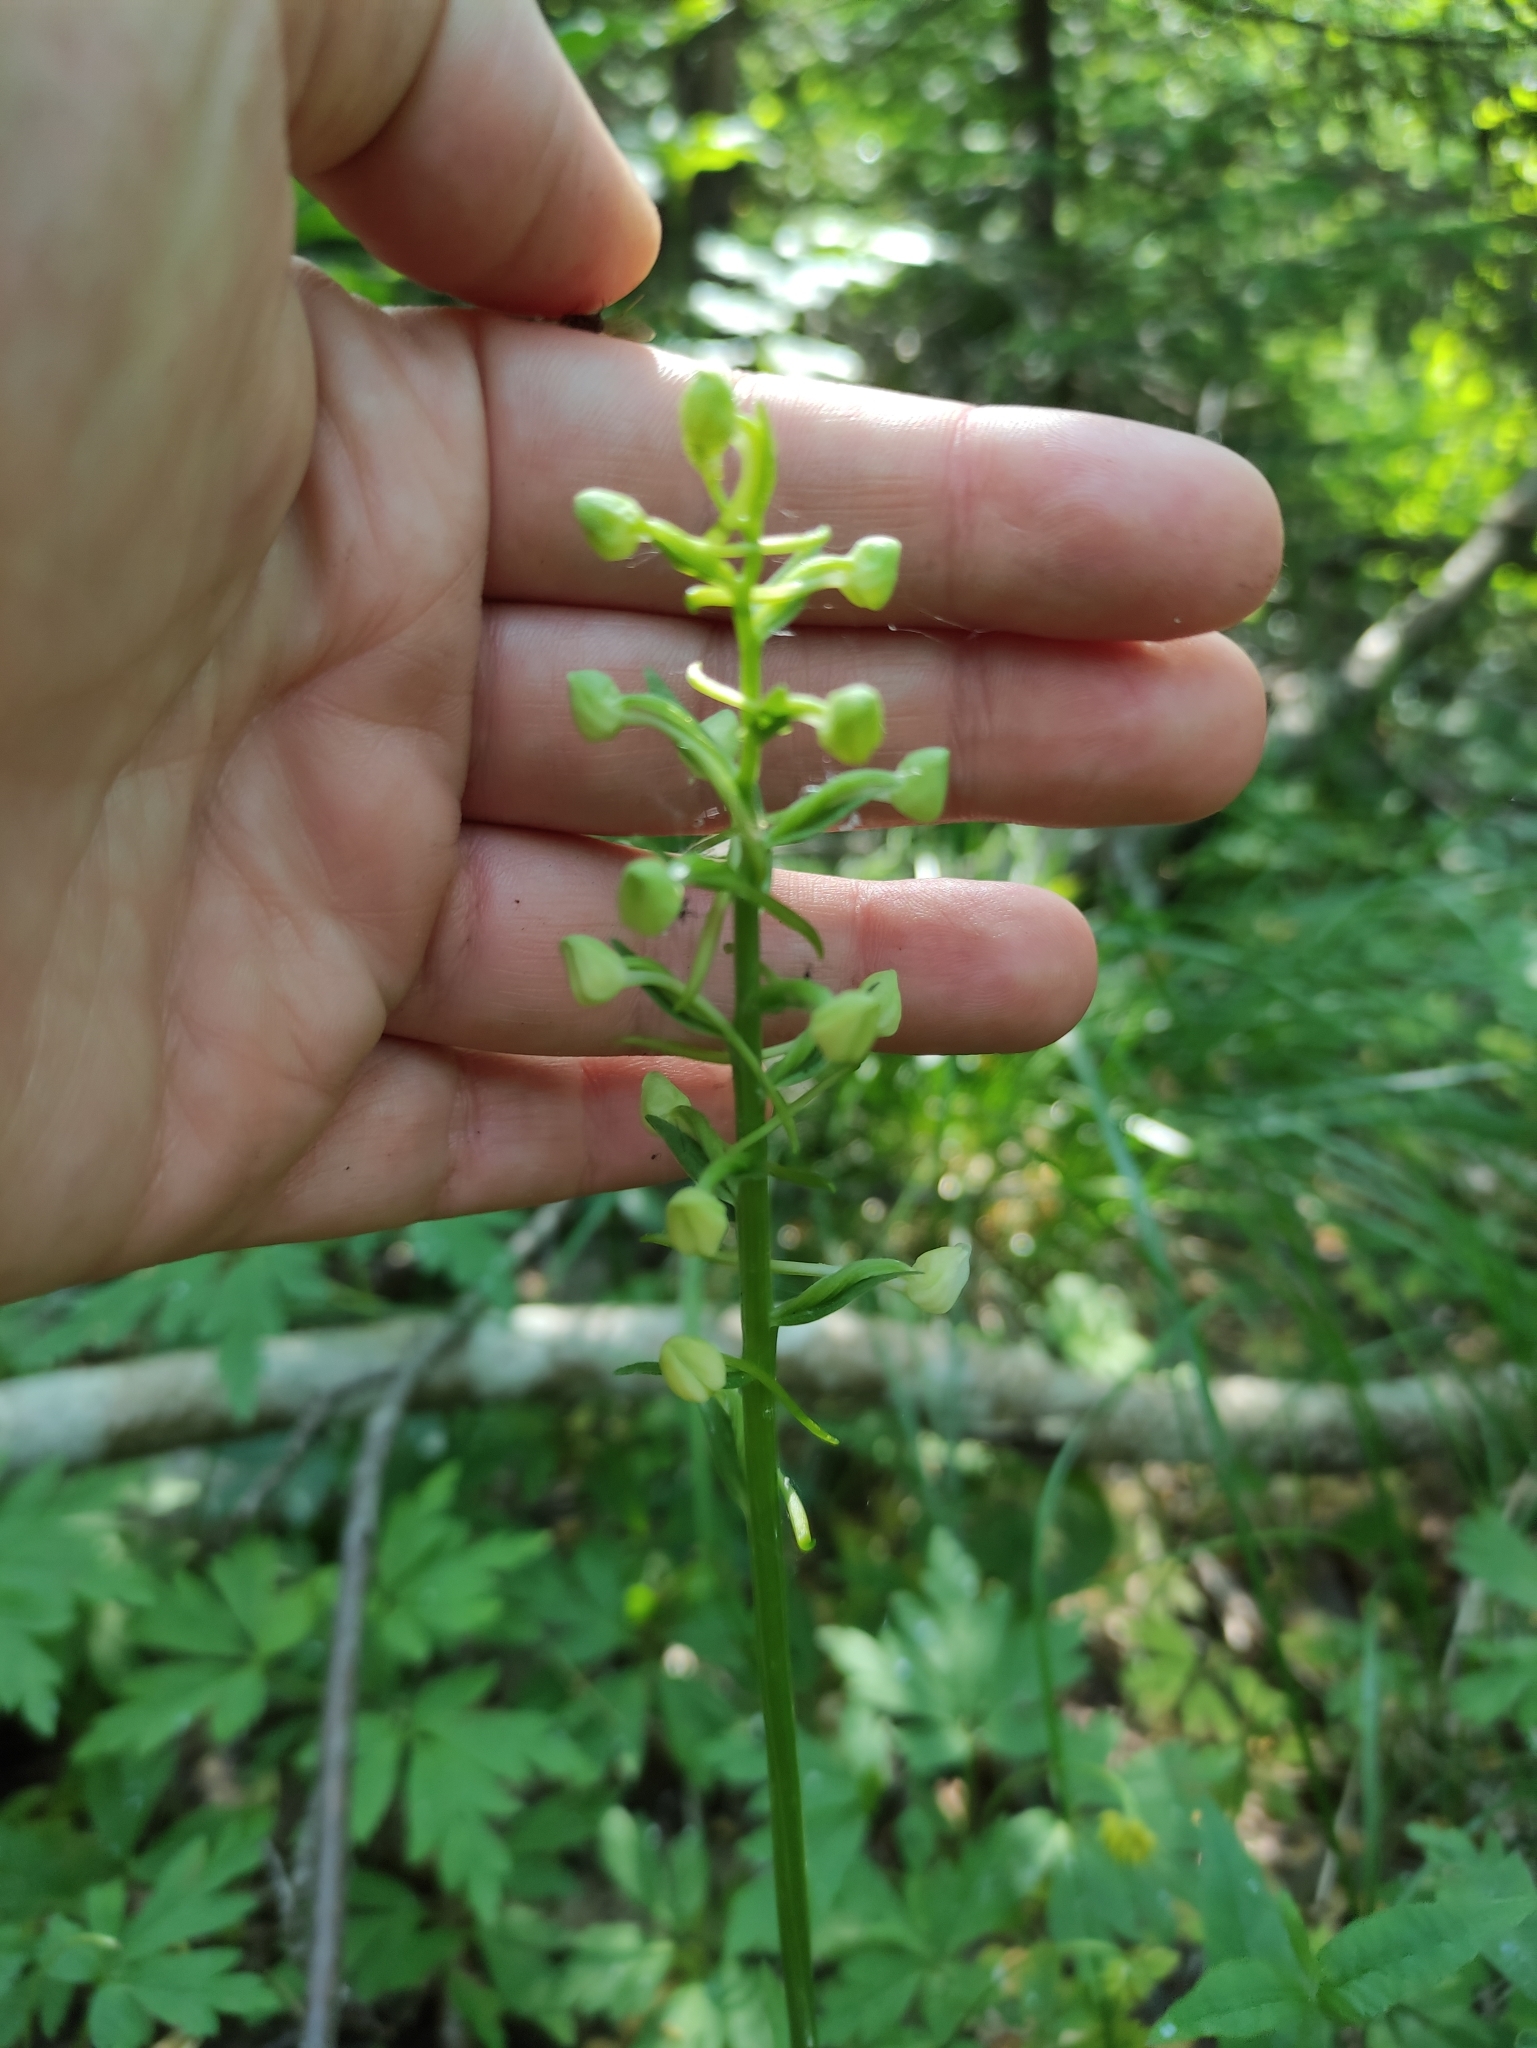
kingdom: Plantae
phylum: Tracheophyta
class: Liliopsida
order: Asparagales
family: Orchidaceae
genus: Platanthera
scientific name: Platanthera
